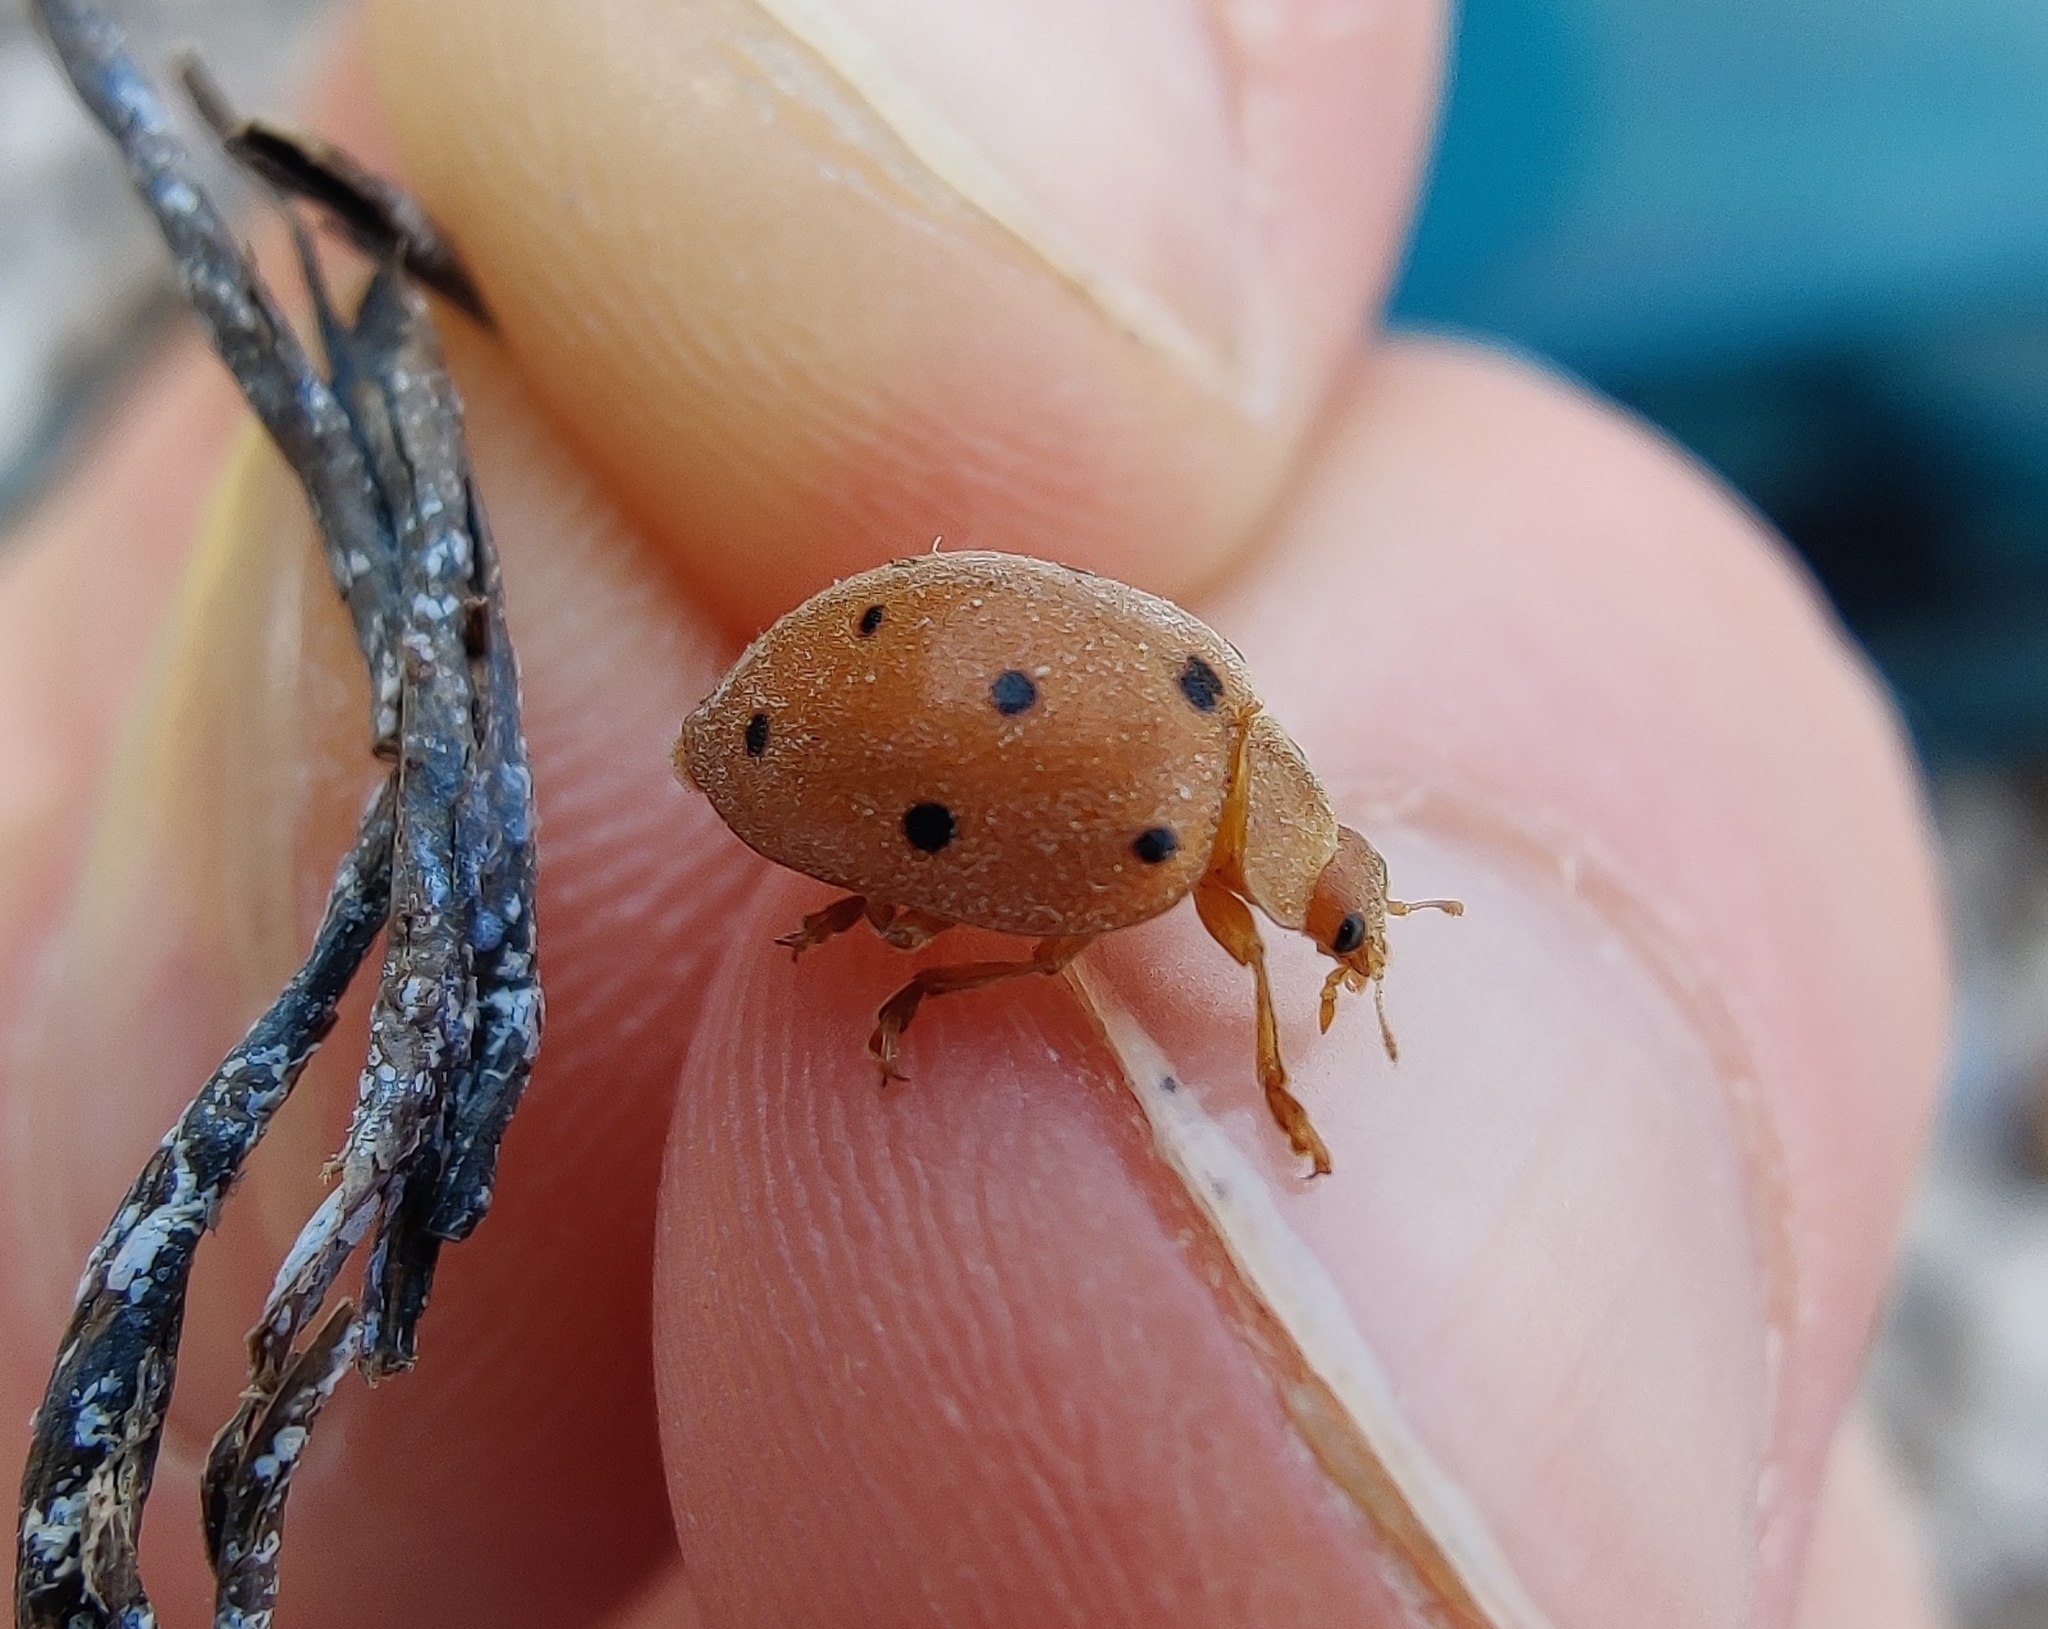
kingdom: Animalia
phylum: Arthropoda
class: Insecta
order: Coleoptera
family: Coccinellidae
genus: Henosepilachna
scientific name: Henosepilachna argus
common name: Bryony ladybird
